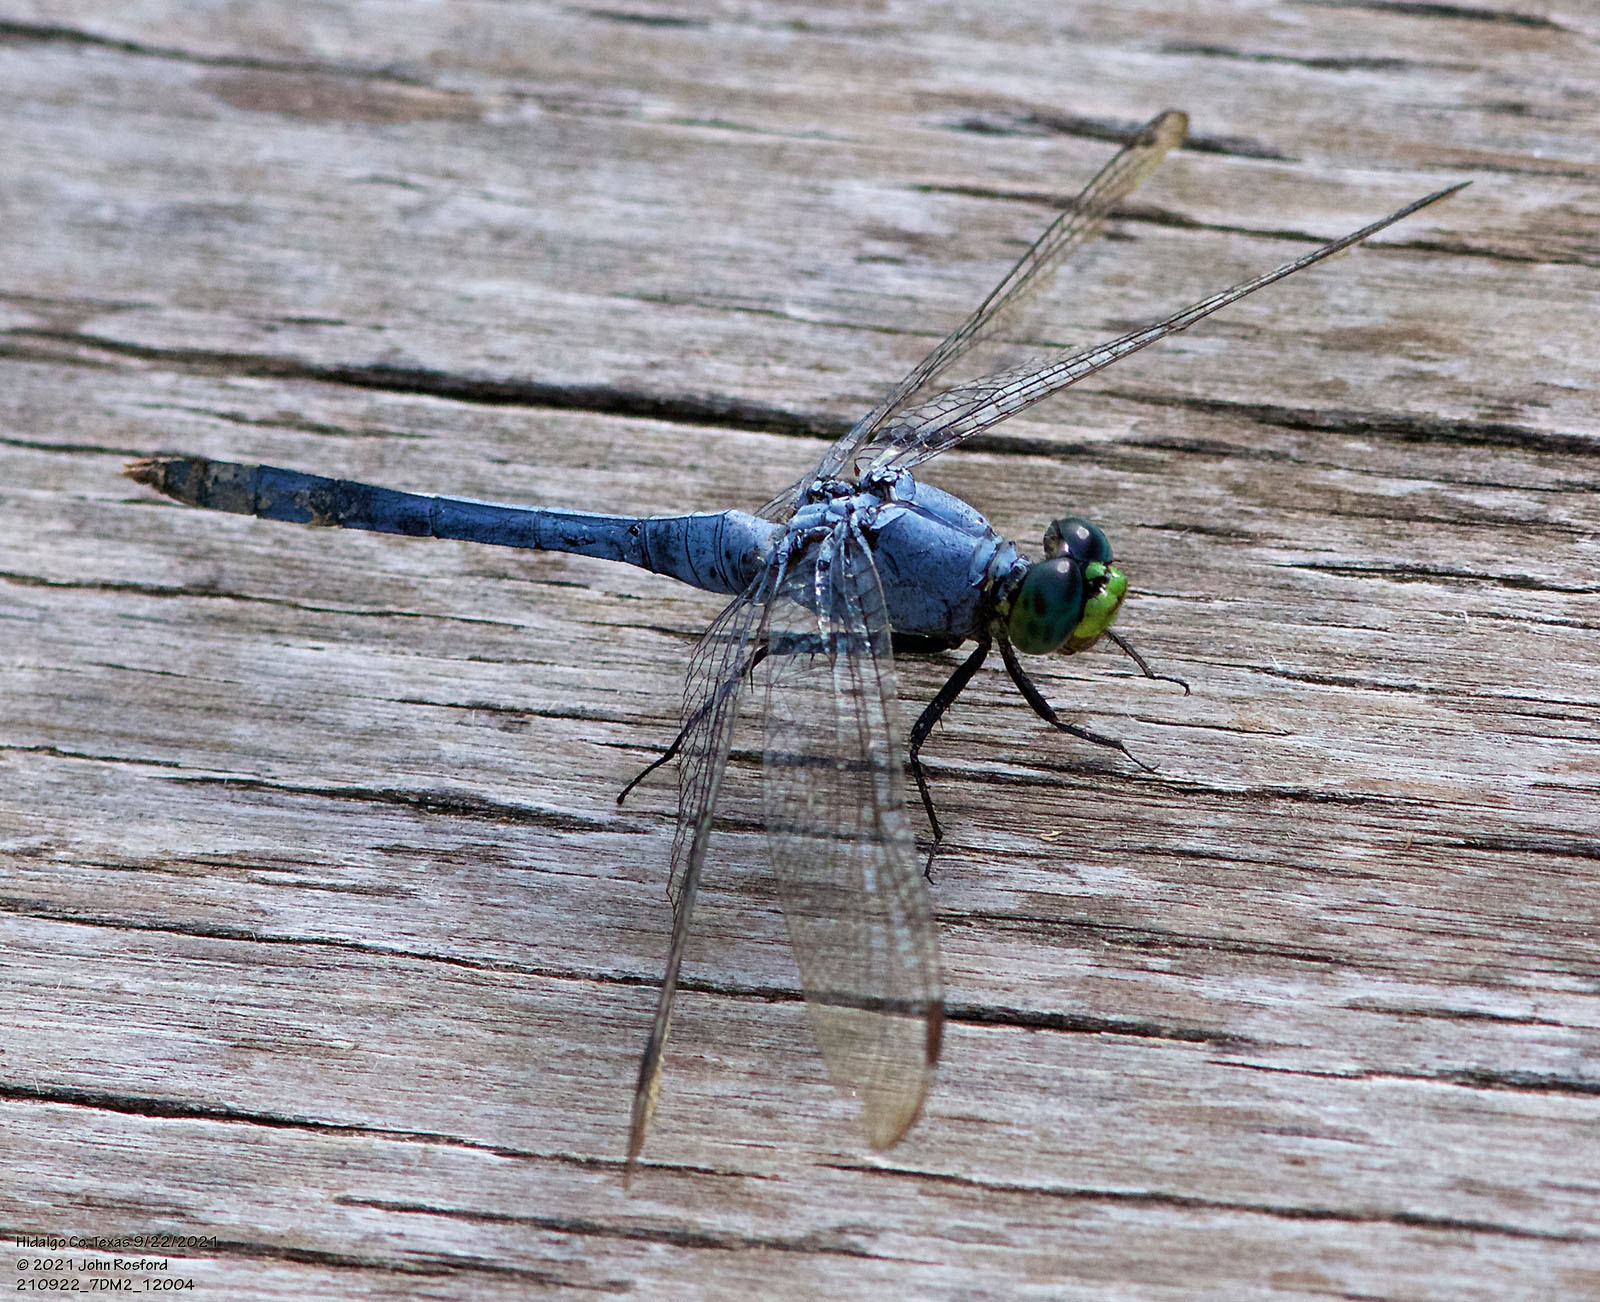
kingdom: Animalia
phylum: Arthropoda
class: Insecta
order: Odonata
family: Libellulidae
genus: Erythemis
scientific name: Erythemis simplicicollis
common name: Eastern pondhawk
